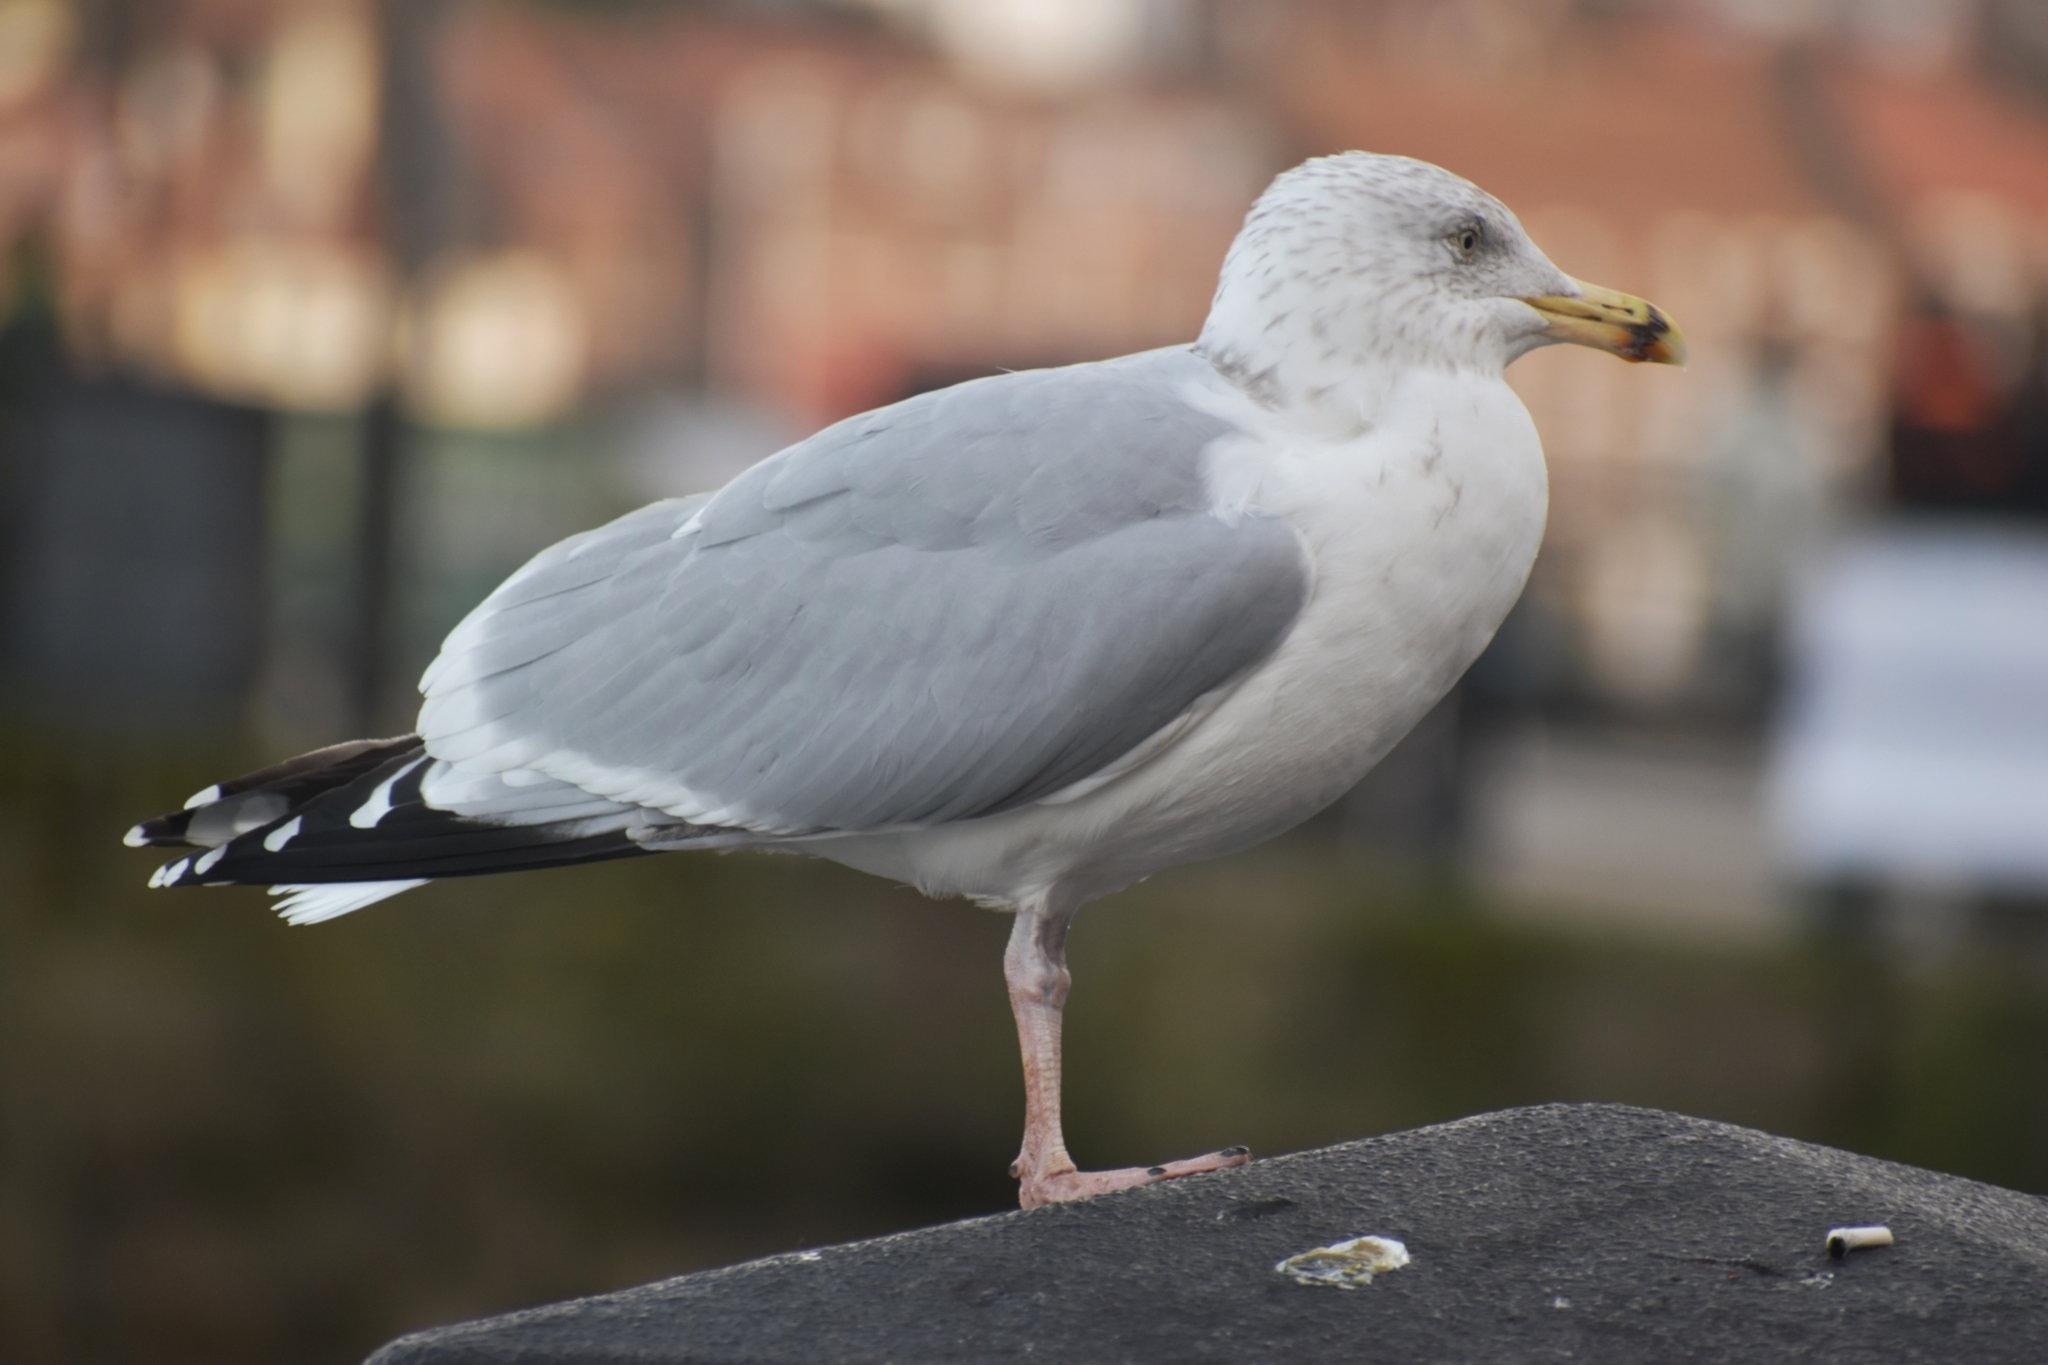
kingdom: Animalia
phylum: Chordata
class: Aves
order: Charadriiformes
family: Laridae
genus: Larus
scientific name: Larus argentatus
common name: Herring gull
